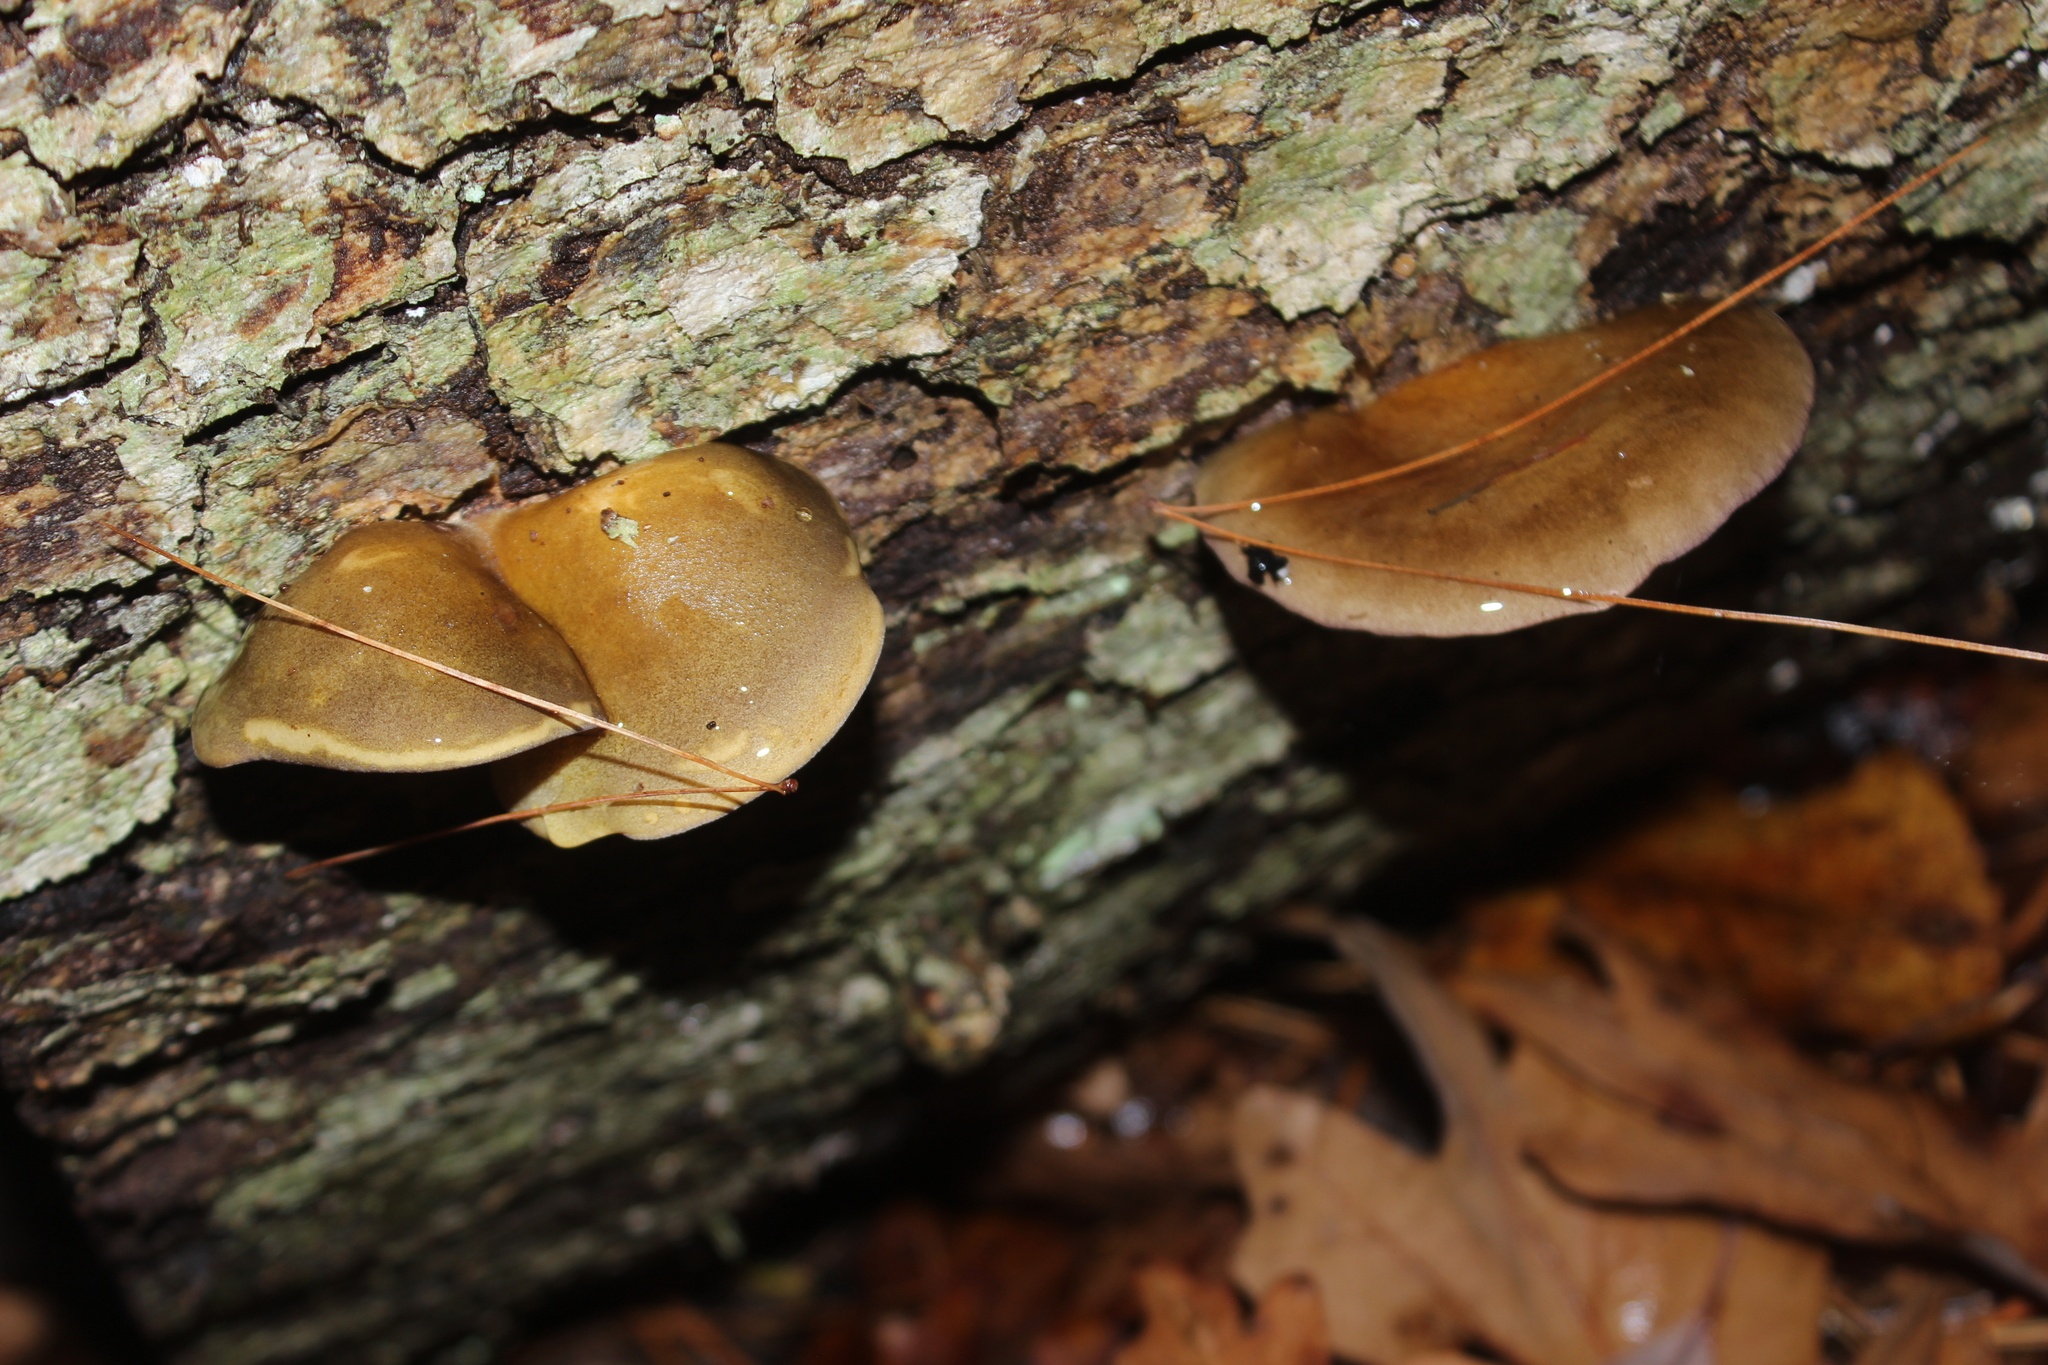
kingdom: Fungi
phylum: Basidiomycota
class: Agaricomycetes
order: Agaricales
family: Sarcomyxaceae
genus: Sarcomyxa
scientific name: Sarcomyxa serotina
